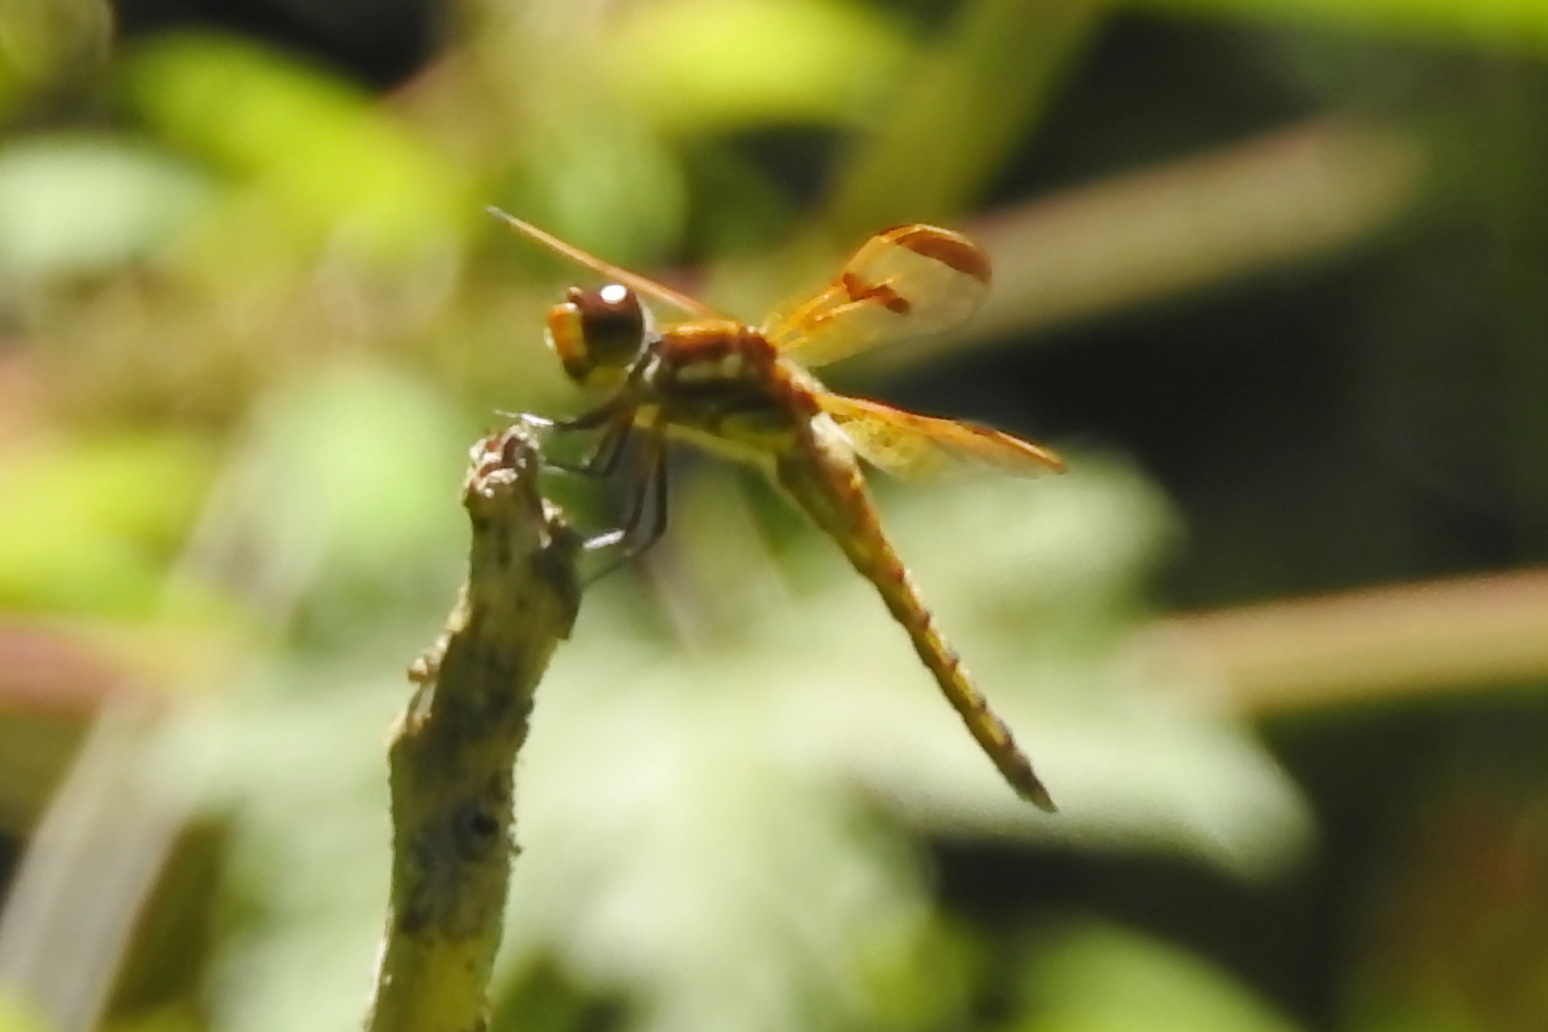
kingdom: Animalia
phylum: Arthropoda
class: Insecta
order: Odonata
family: Libellulidae
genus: Libellula
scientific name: Libellula semifasciata
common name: Painted skimmer
